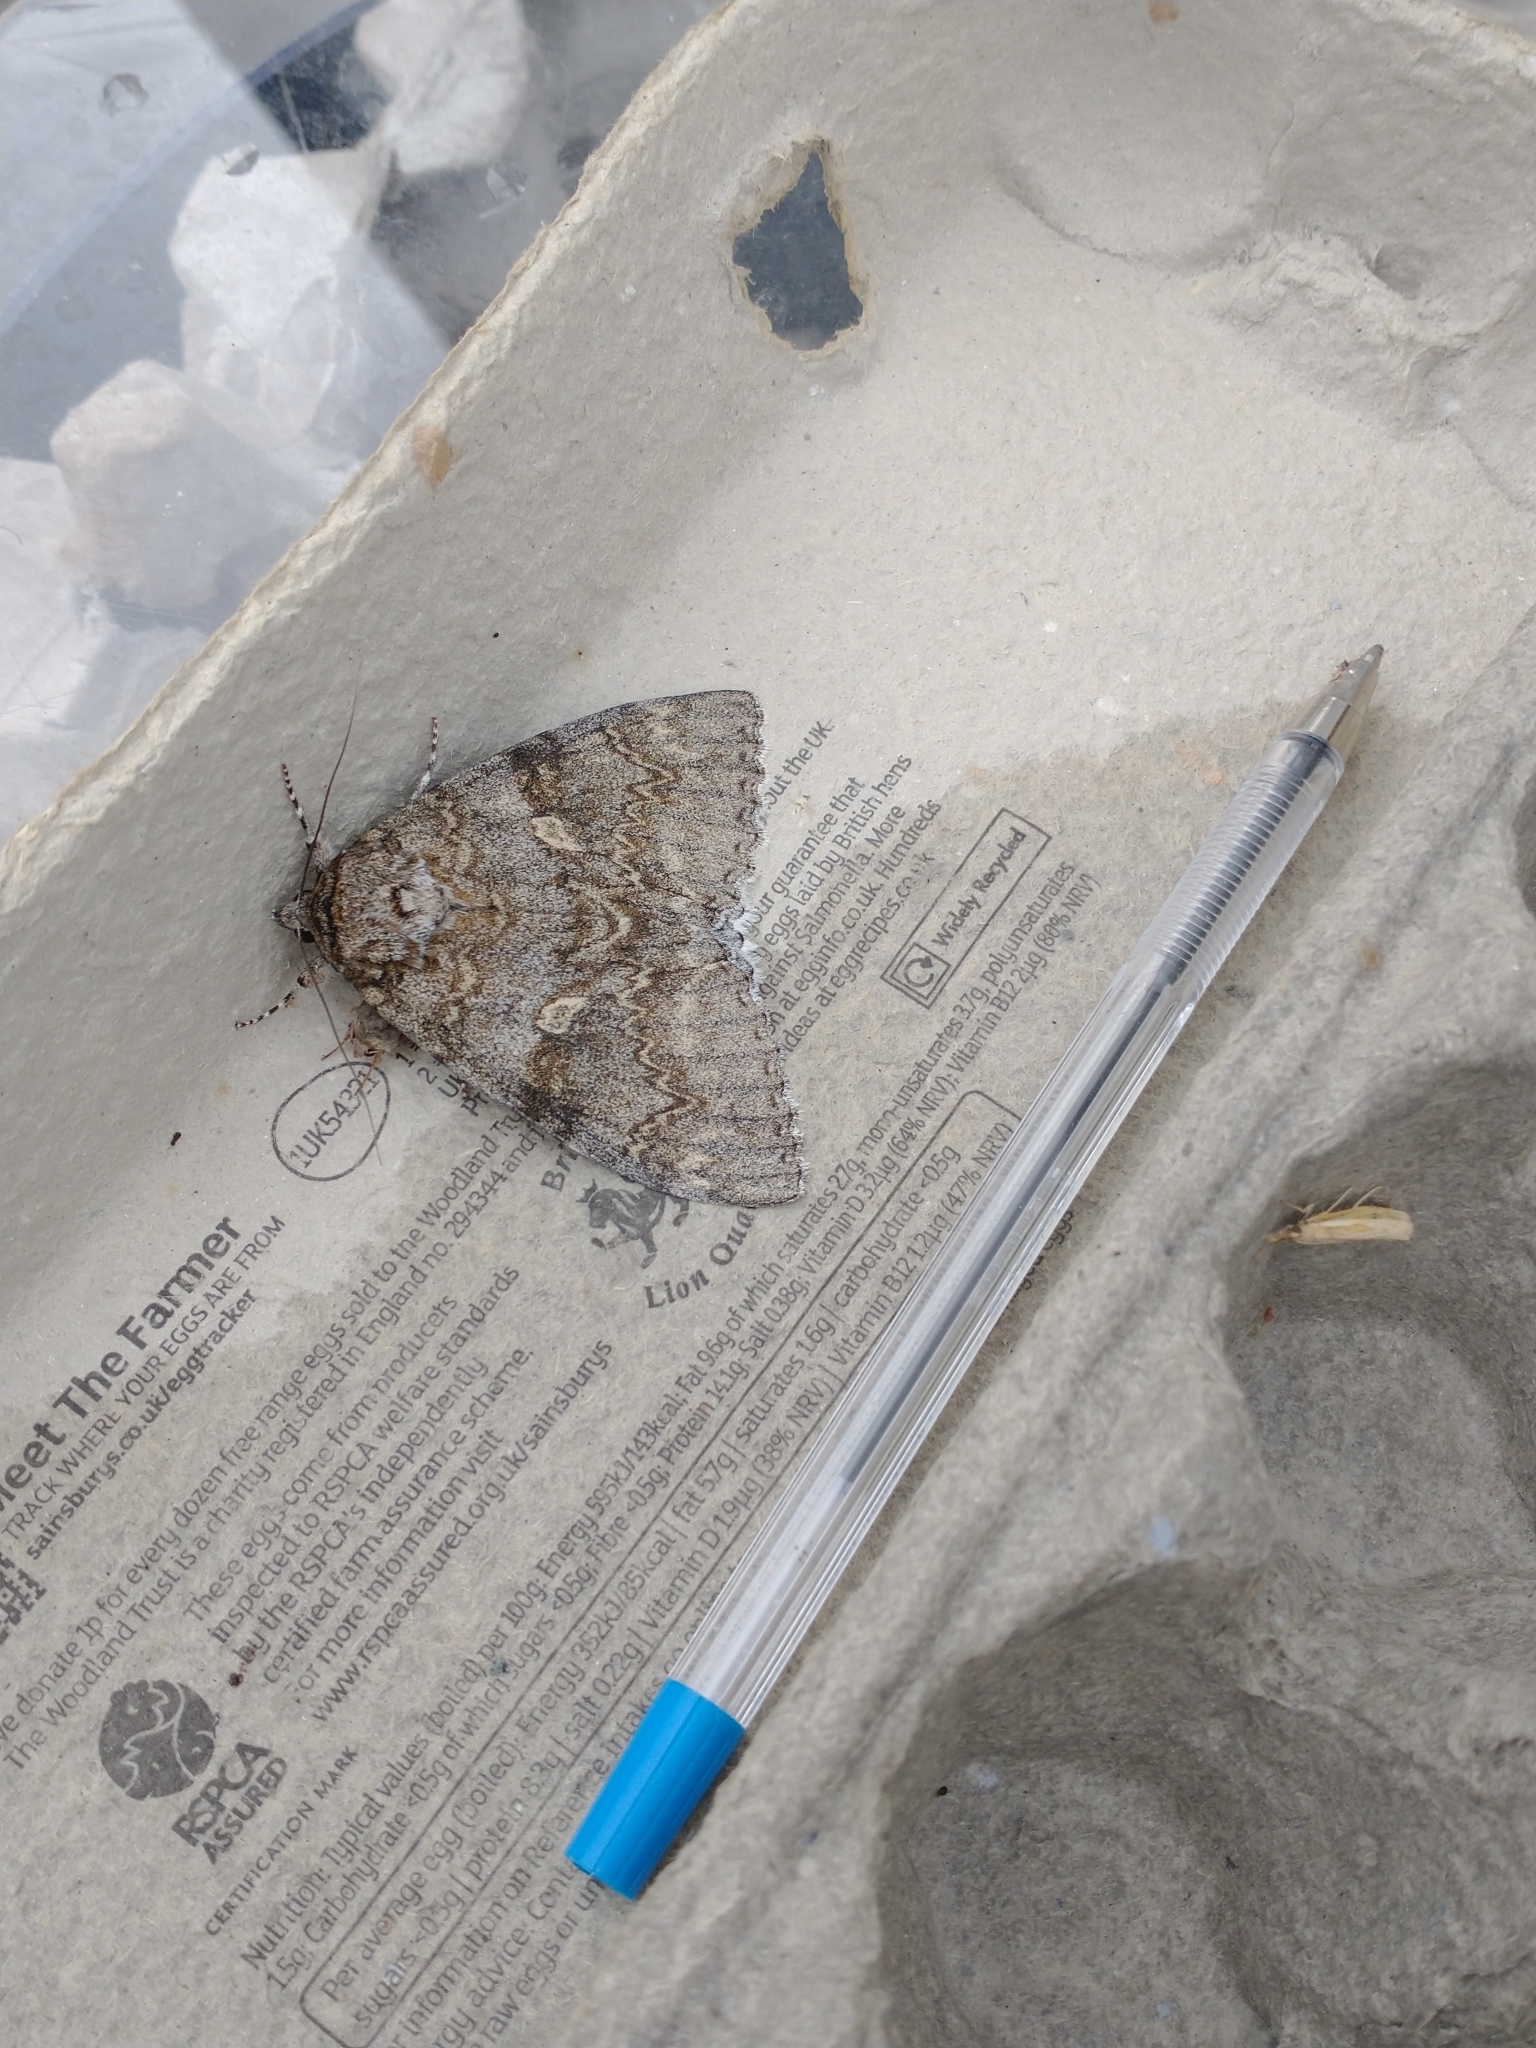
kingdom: Animalia
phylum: Arthropoda
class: Insecta
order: Lepidoptera
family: Erebidae
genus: Catocala
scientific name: Catocala fraxini
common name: Clifden nonpareil
